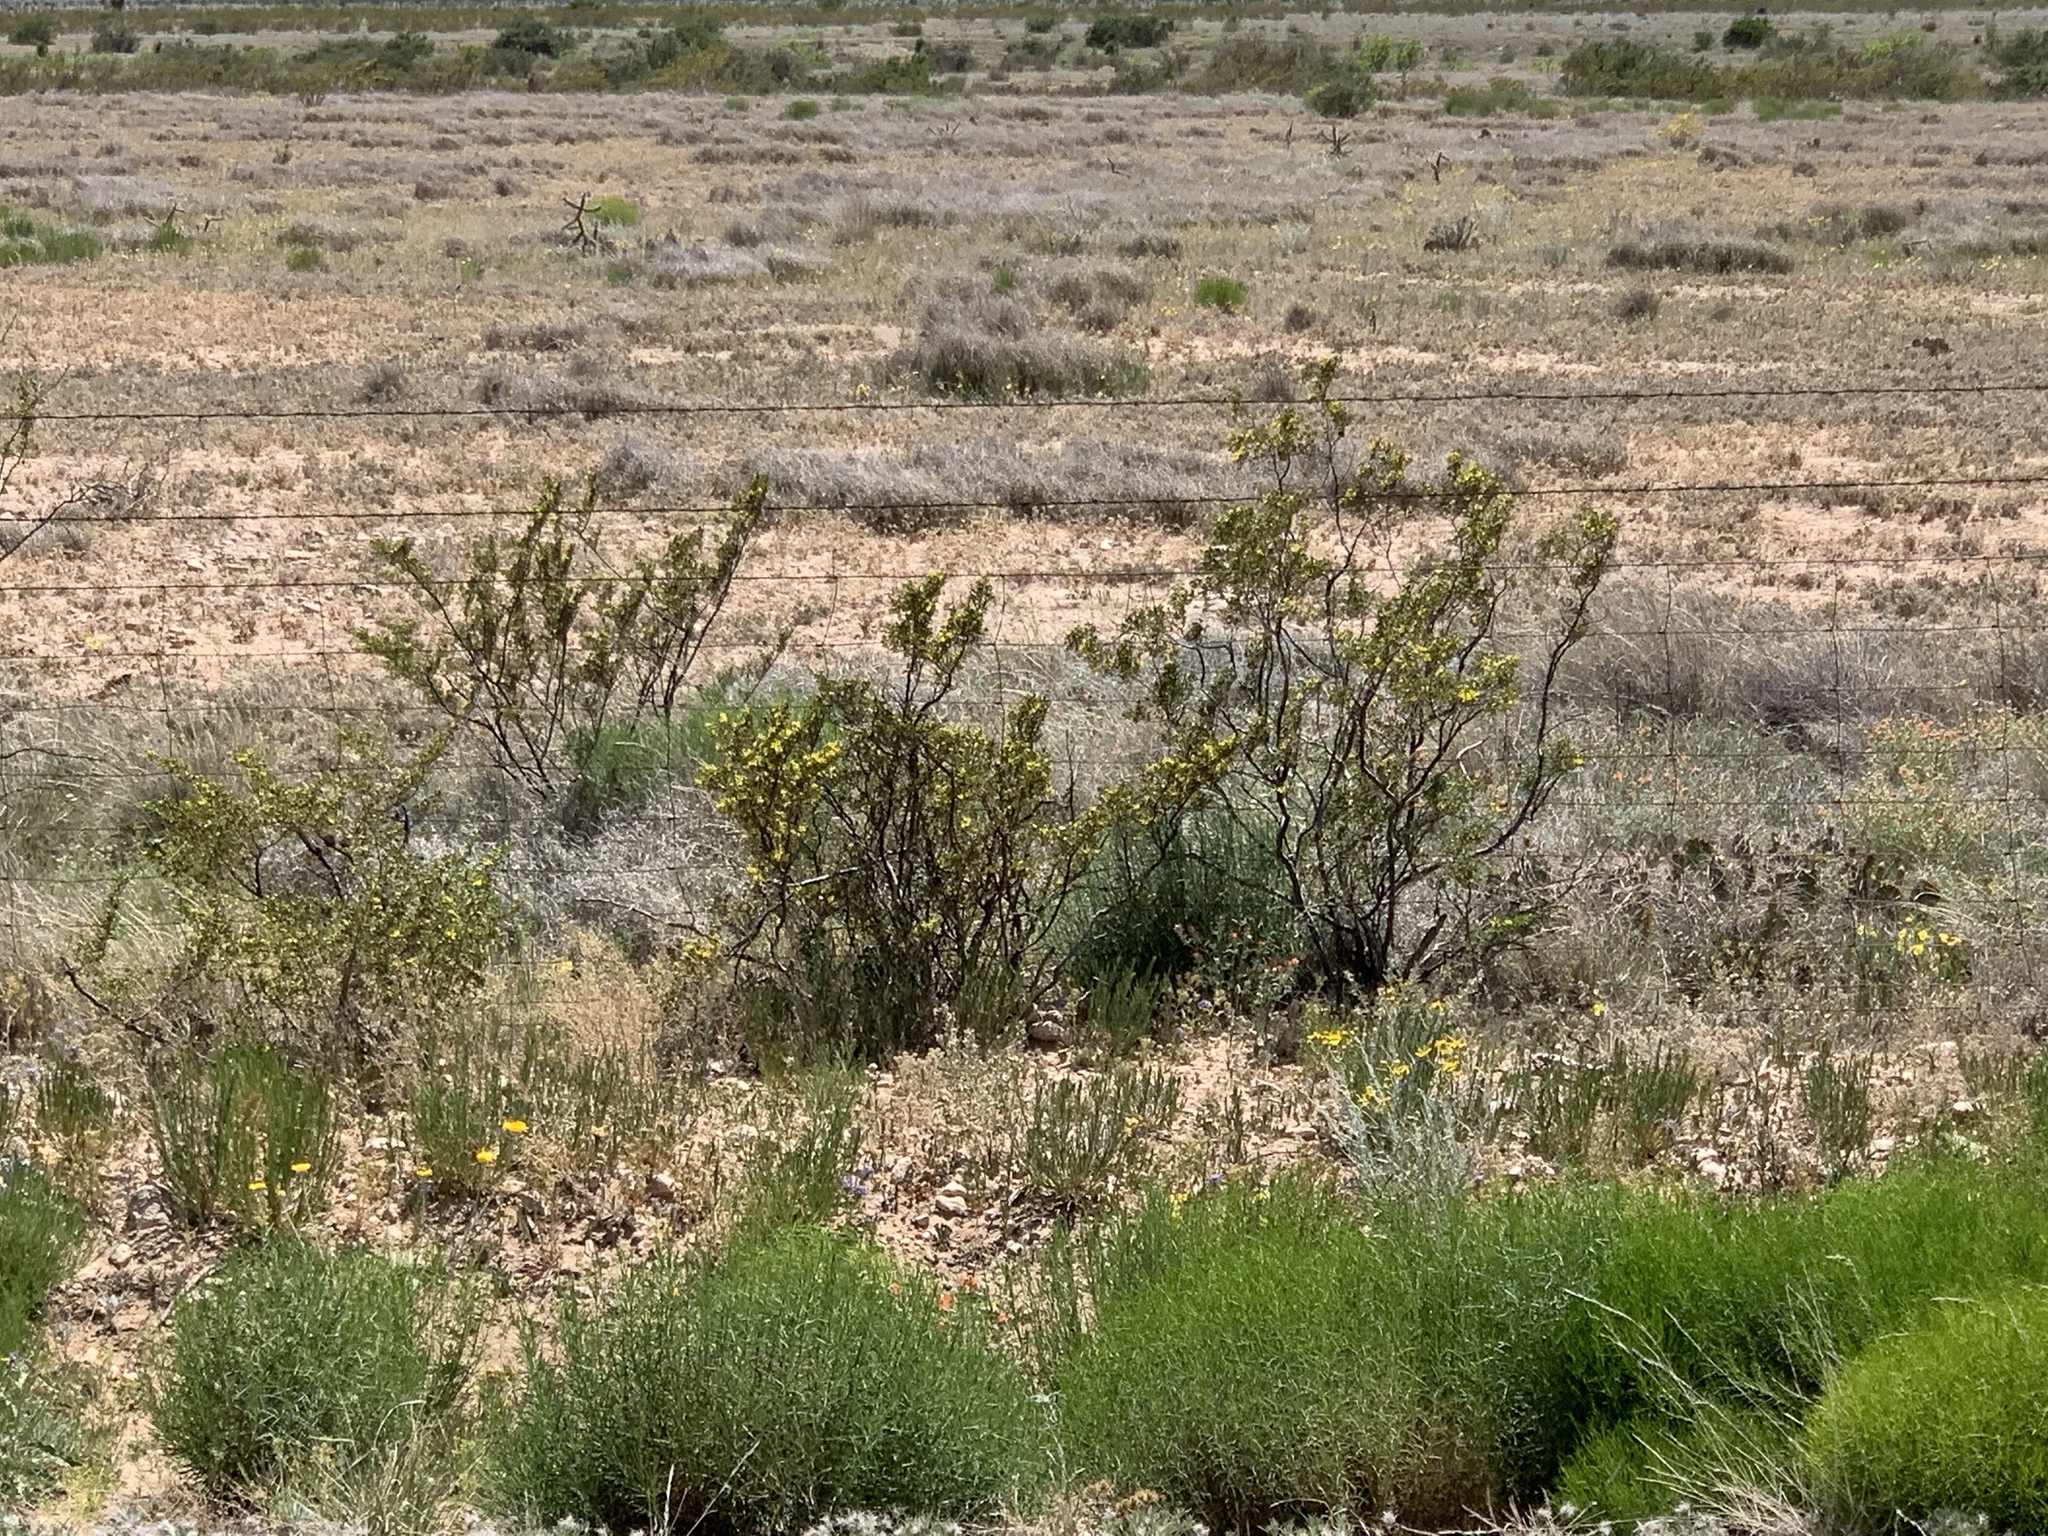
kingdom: Plantae
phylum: Tracheophyta
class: Magnoliopsida
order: Zygophyllales
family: Zygophyllaceae
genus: Larrea
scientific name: Larrea tridentata
